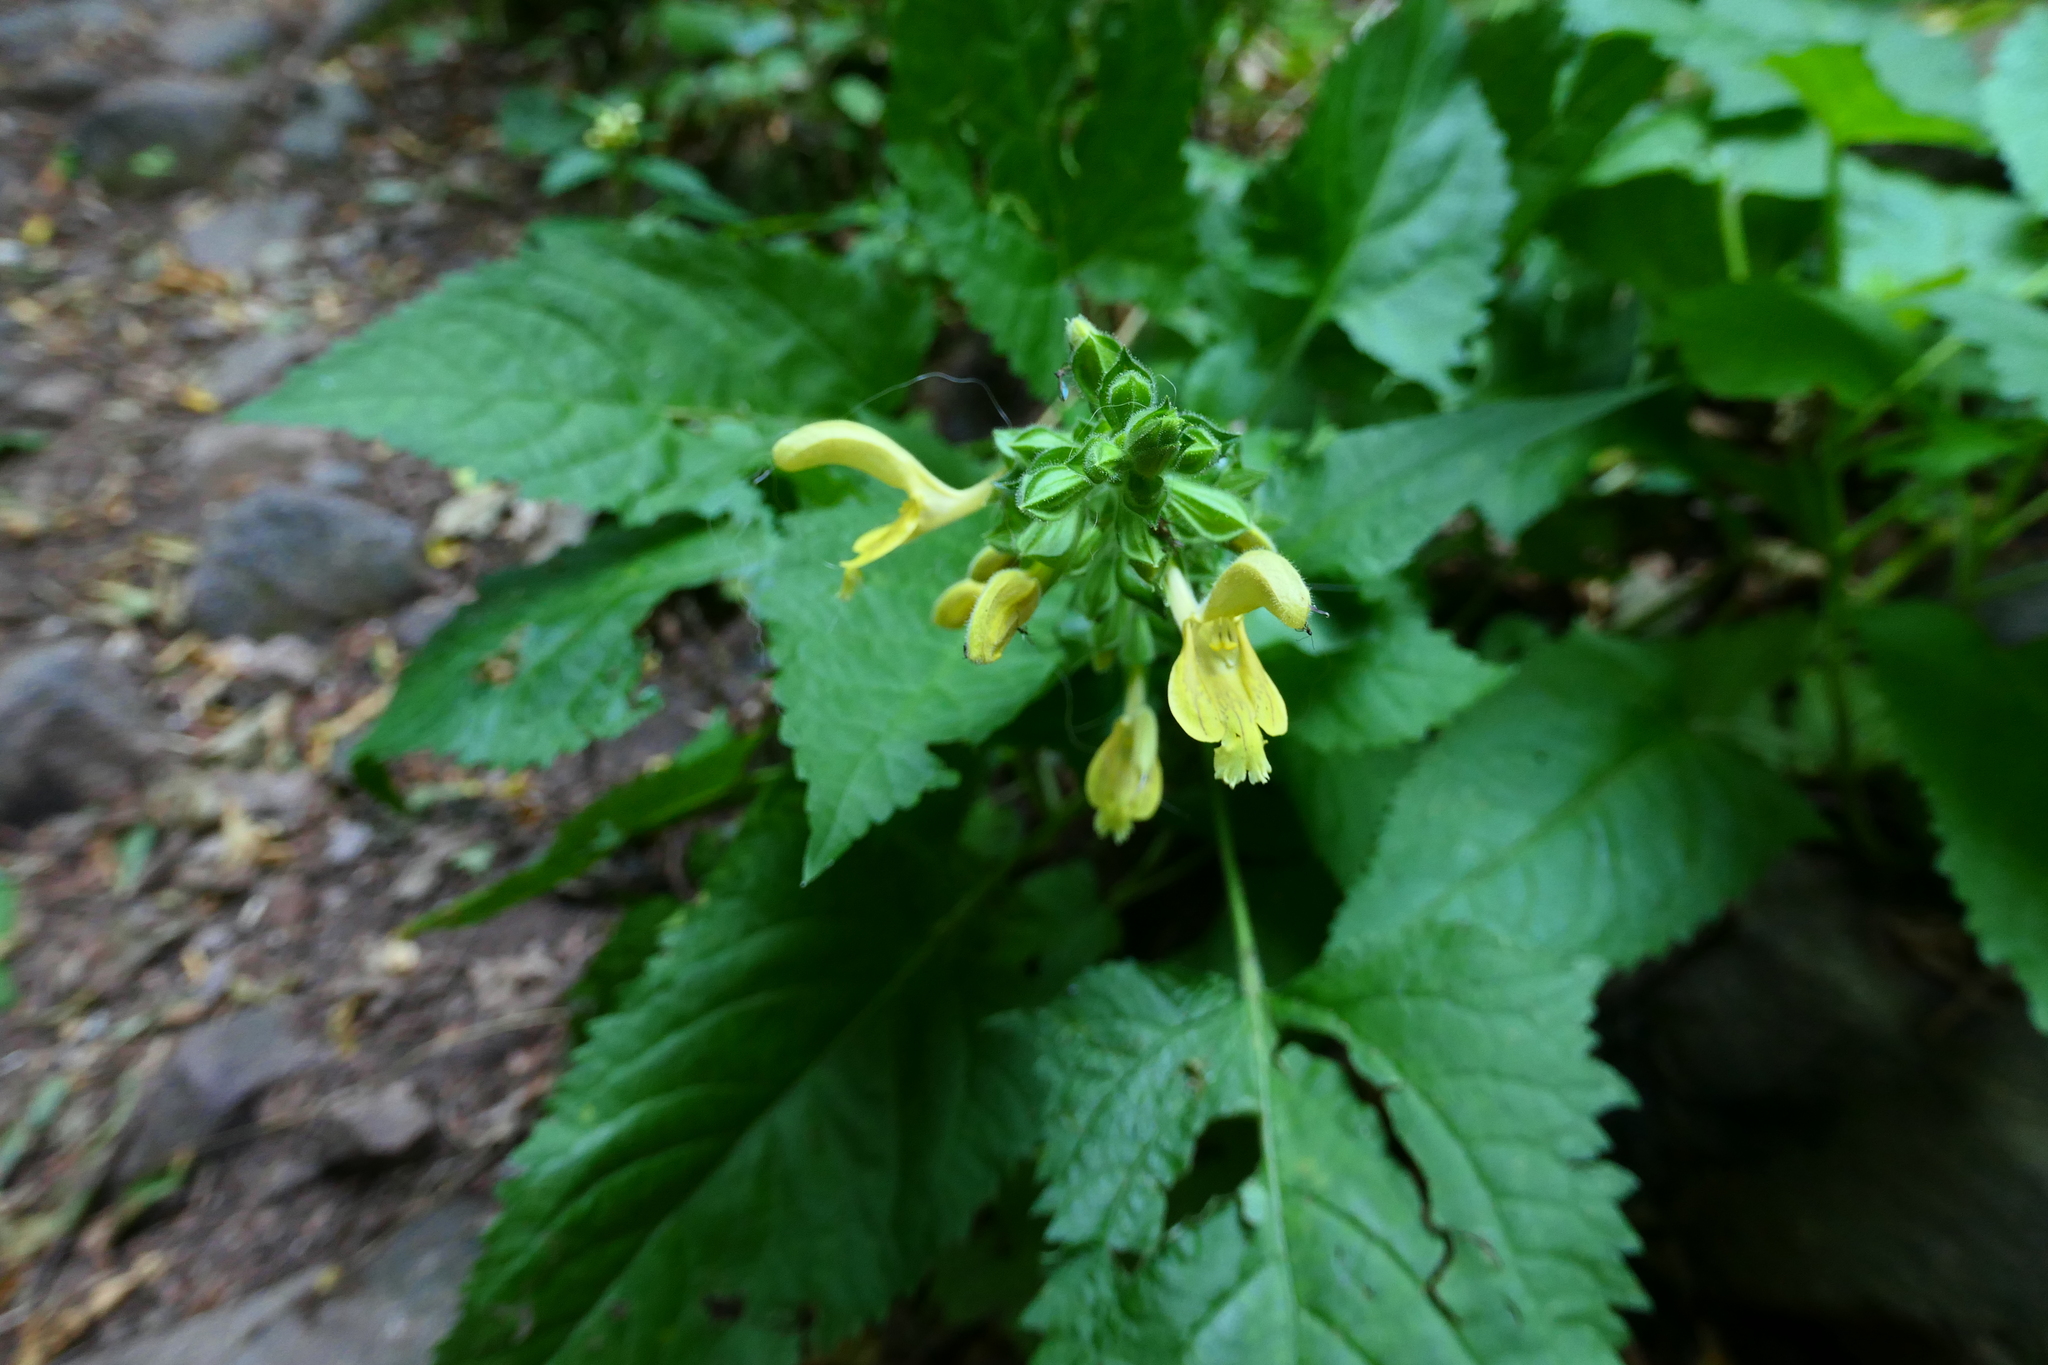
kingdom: Plantae
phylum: Tracheophyta
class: Magnoliopsida
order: Lamiales
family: Lamiaceae
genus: Salvia
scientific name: Salvia glutinosa
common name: Sticky clary
